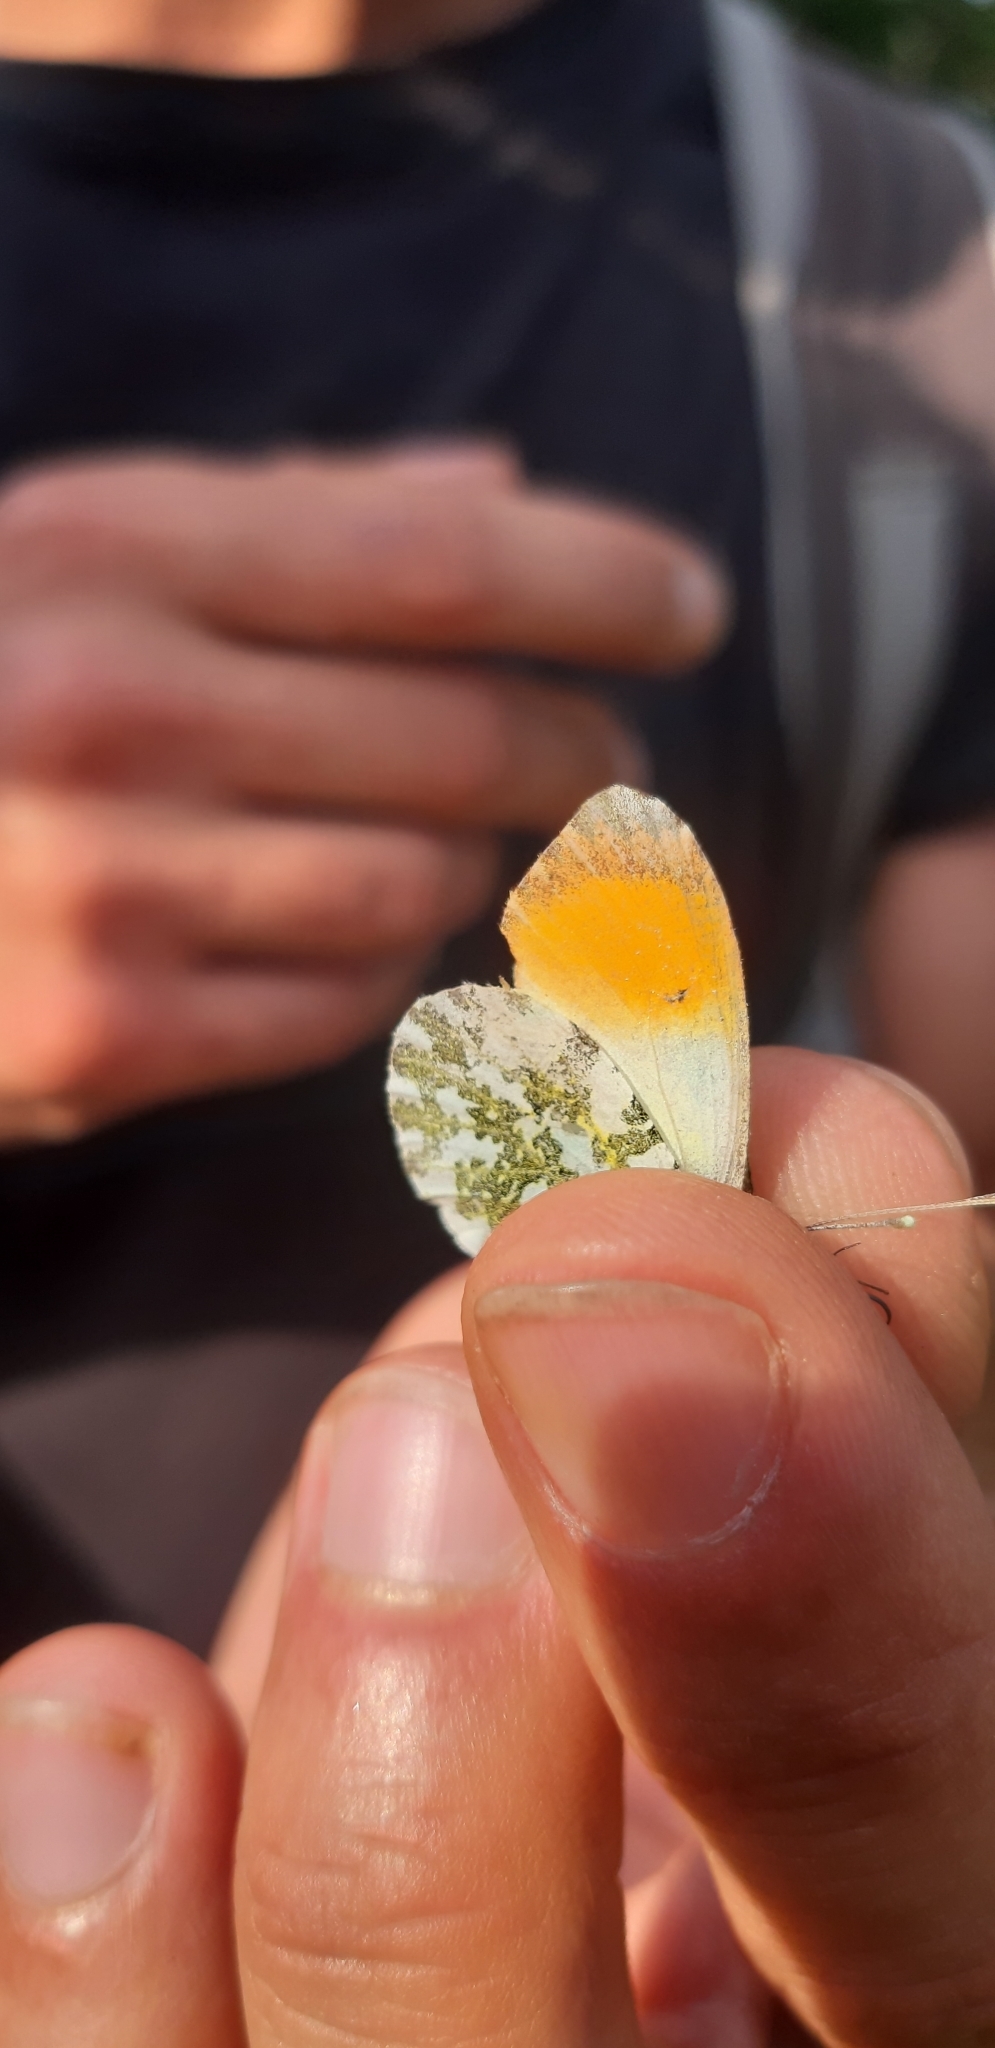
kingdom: Animalia
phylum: Arthropoda
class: Insecta
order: Lepidoptera
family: Pieridae
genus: Anthocharis
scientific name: Anthocharis cardamines
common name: Orange-tip
